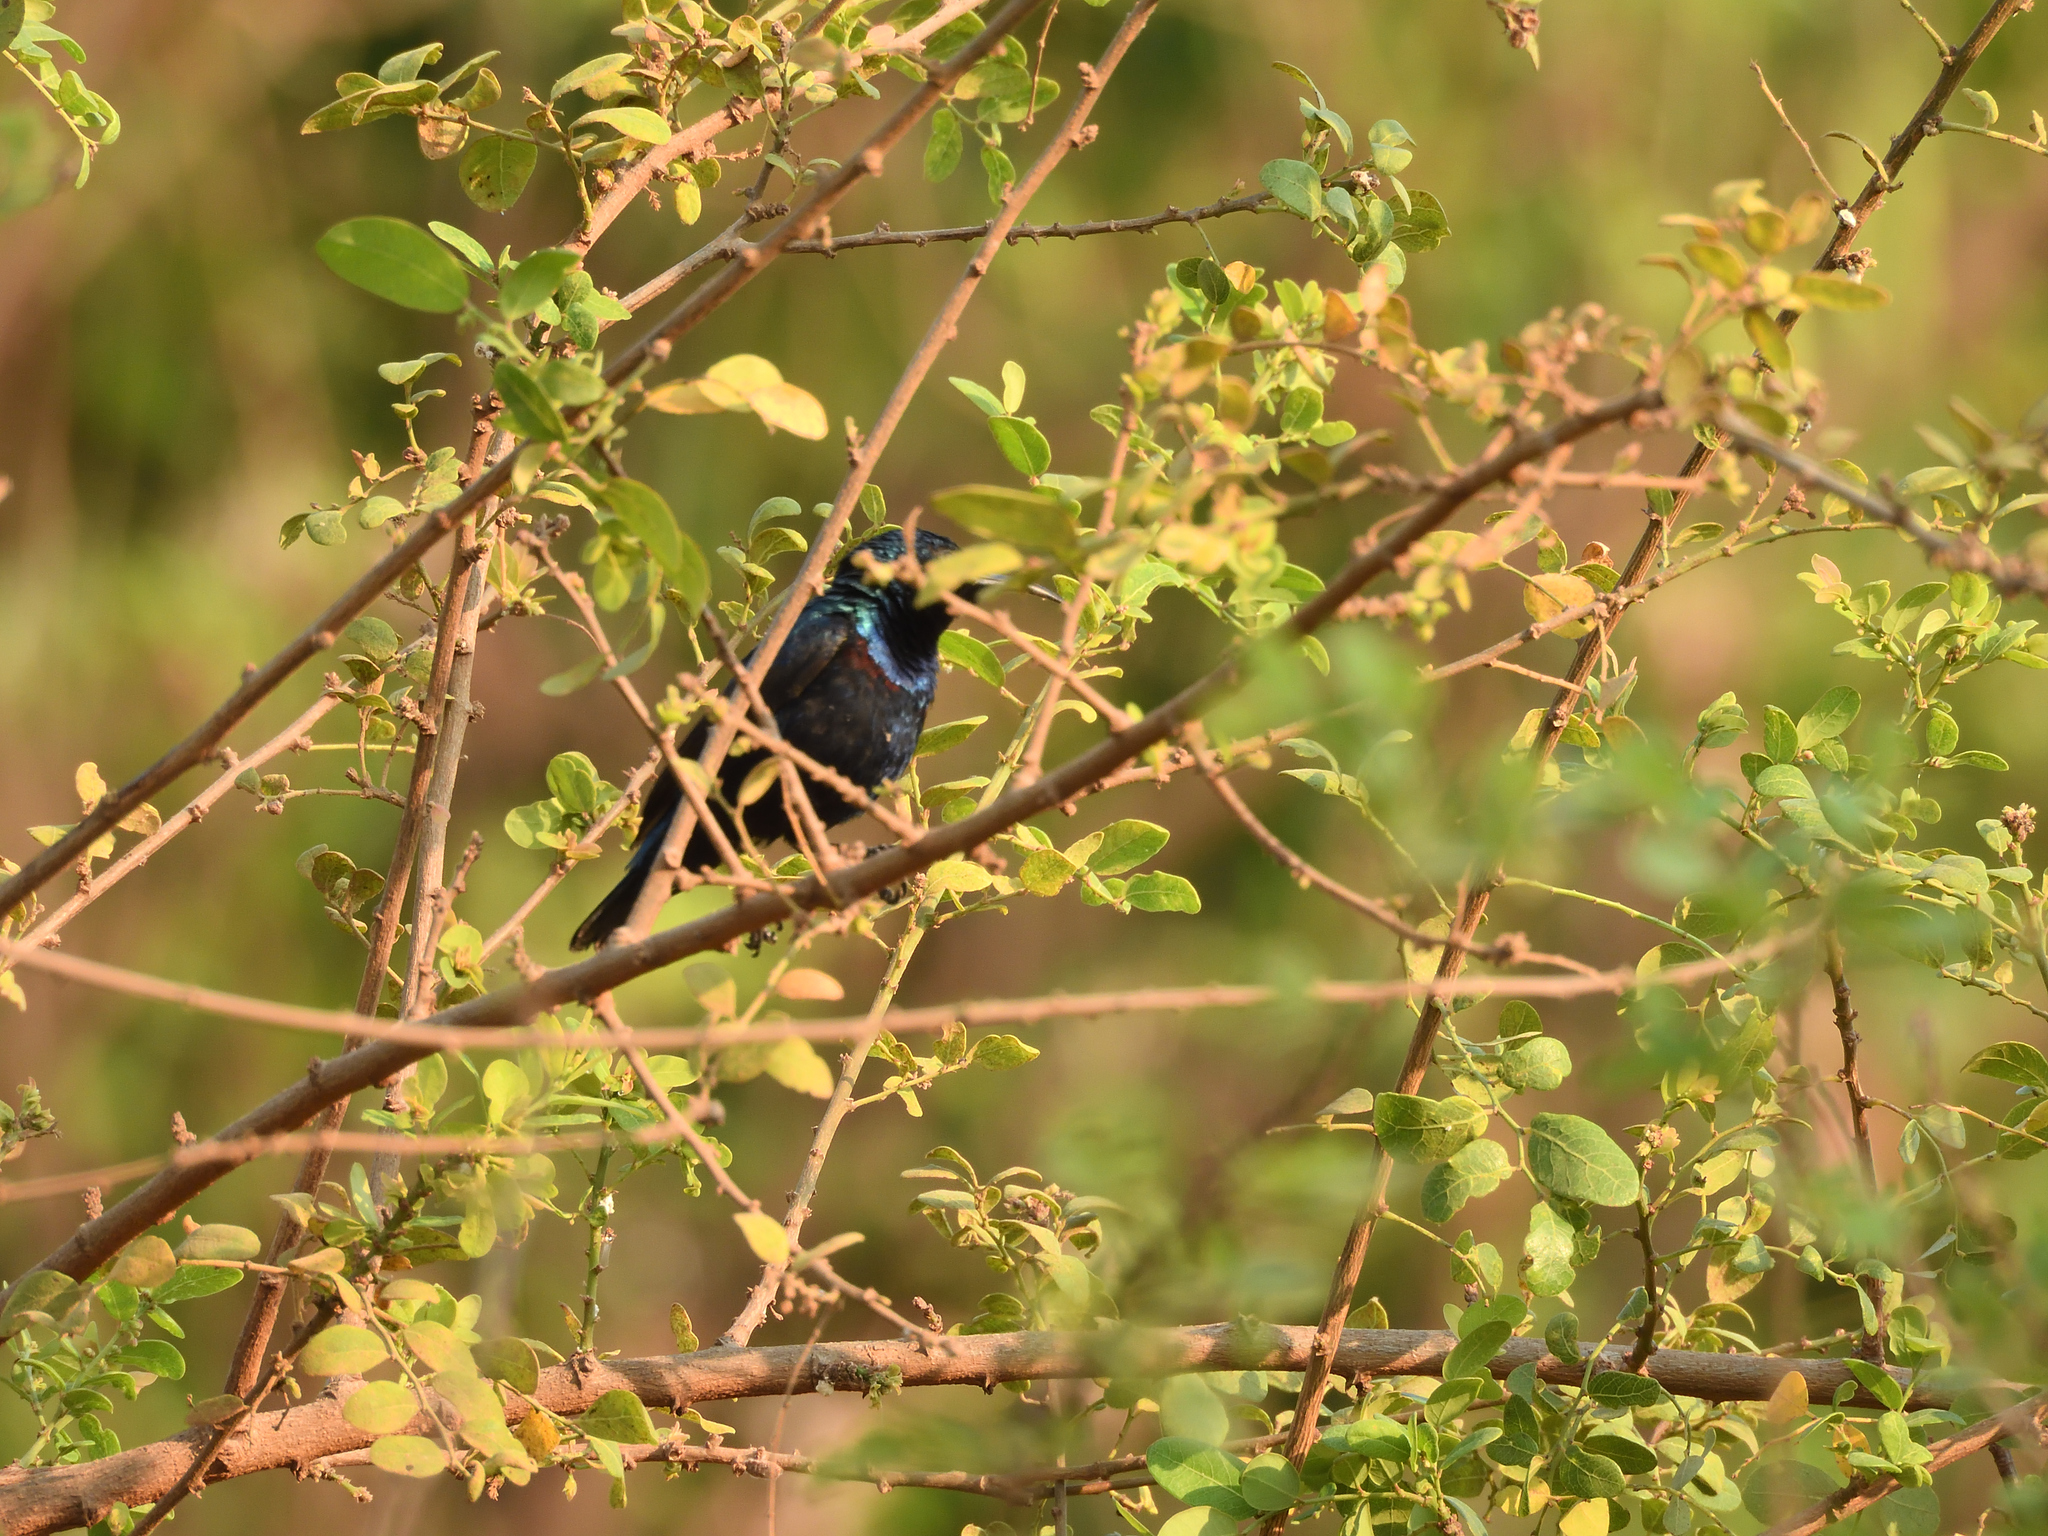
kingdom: Animalia
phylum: Chordata
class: Aves
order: Passeriformes
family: Nectariniidae
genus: Cinnyris
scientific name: Cinnyris asiaticus
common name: Purple sunbird
